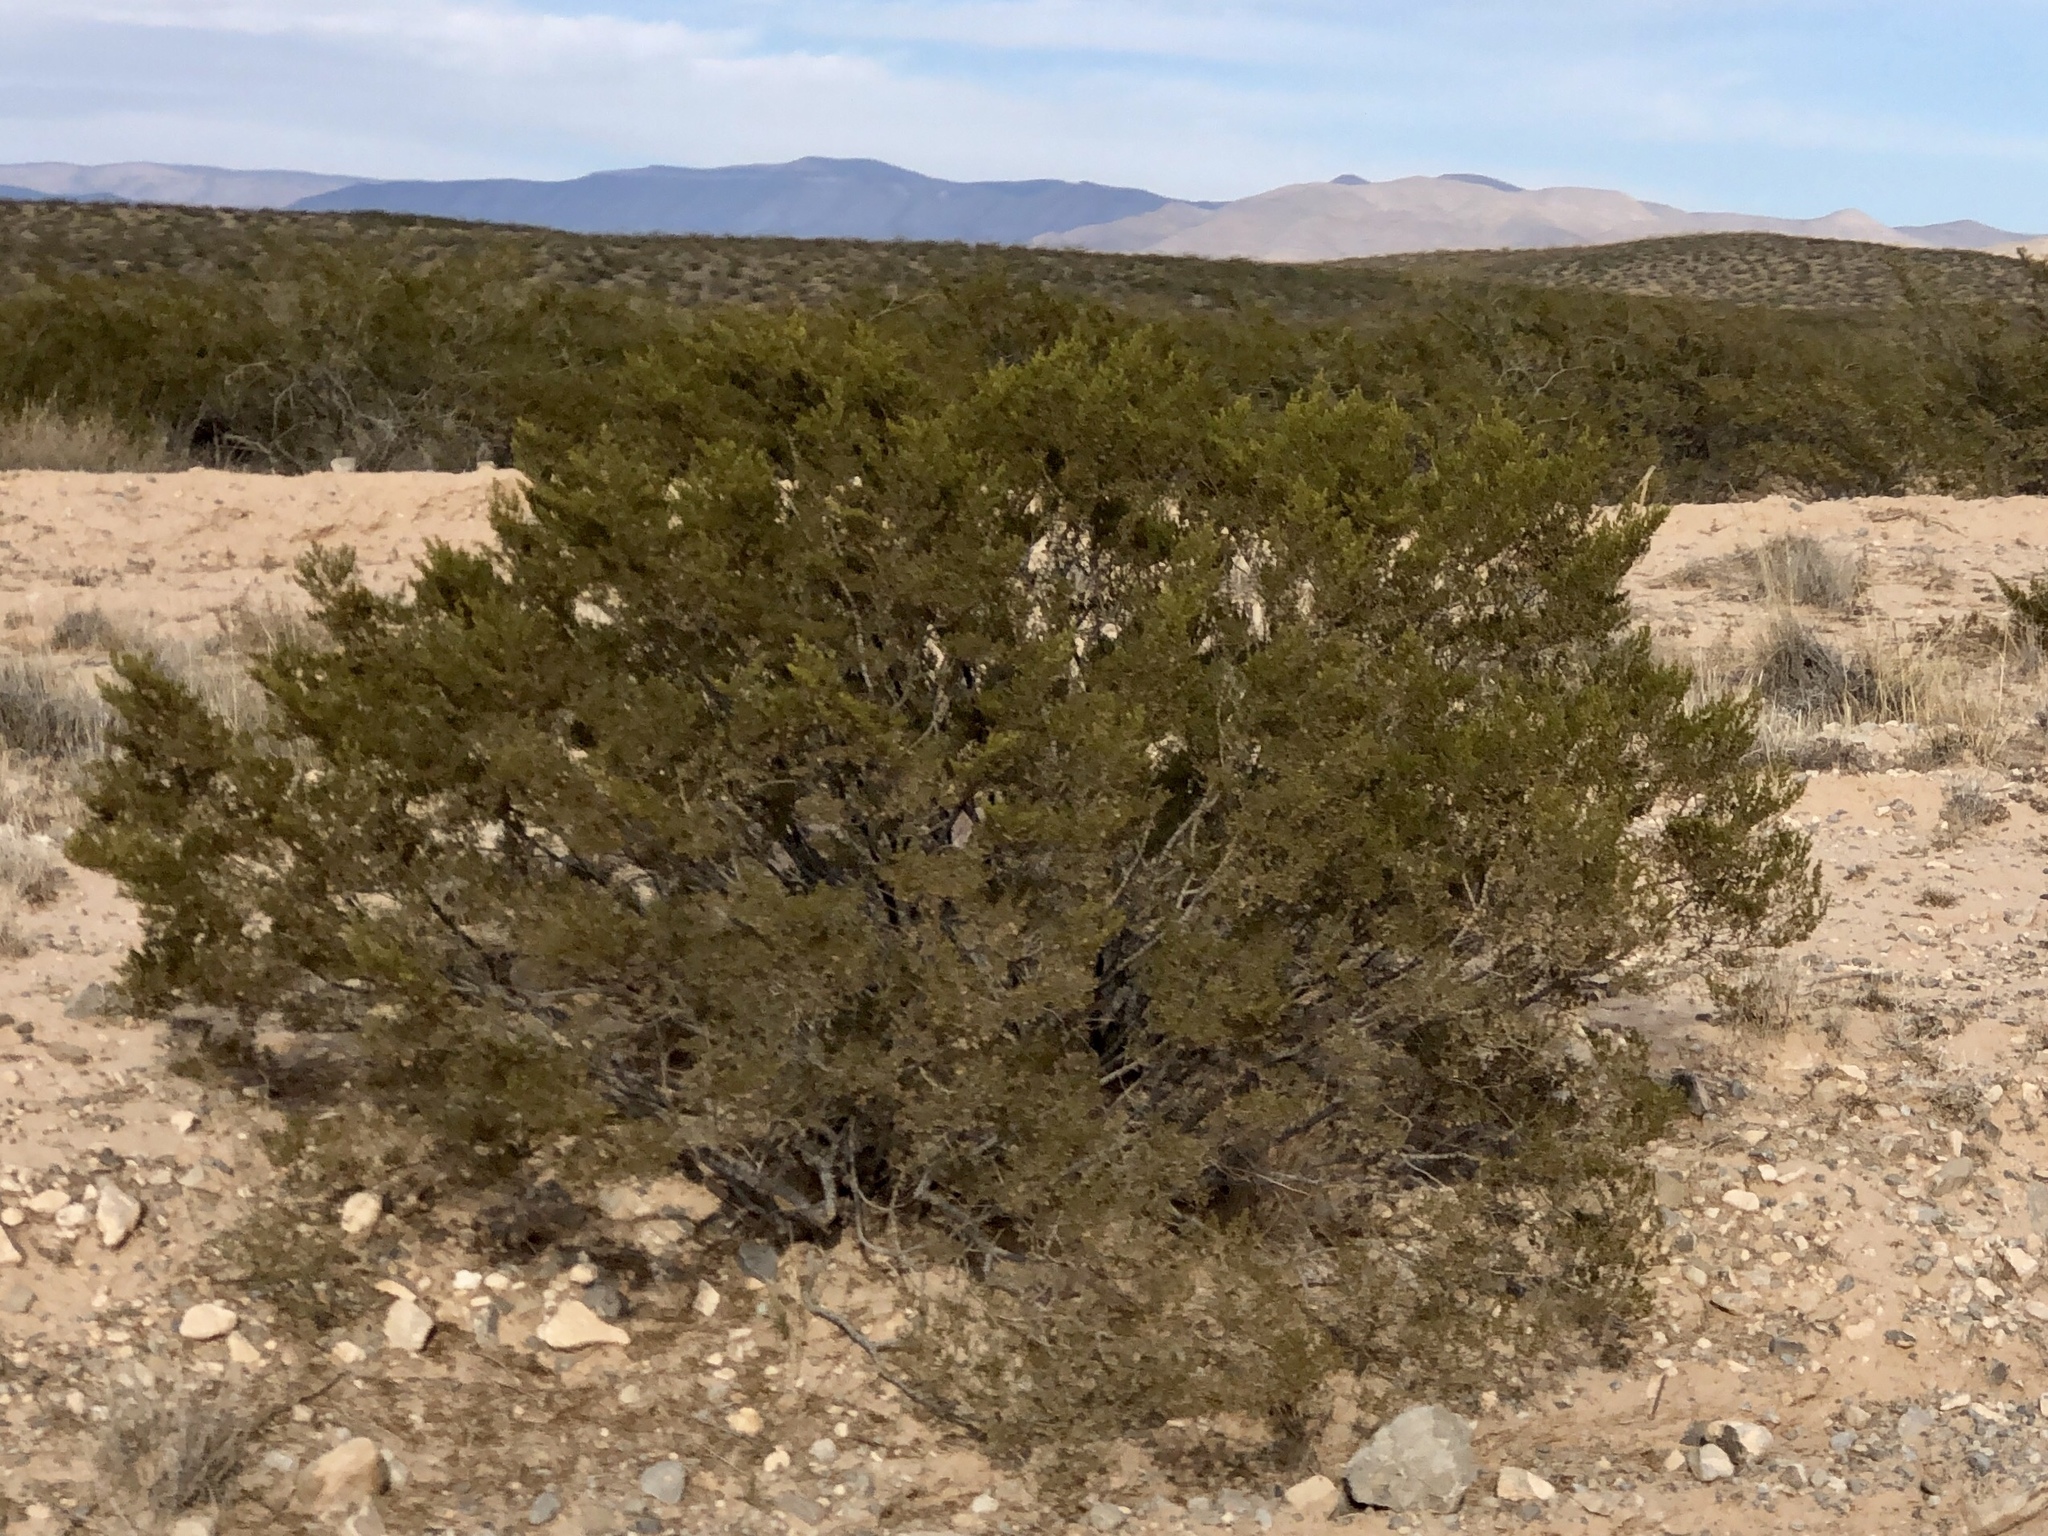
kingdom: Plantae
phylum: Tracheophyta
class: Magnoliopsida
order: Zygophyllales
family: Zygophyllaceae
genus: Larrea
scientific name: Larrea tridentata
